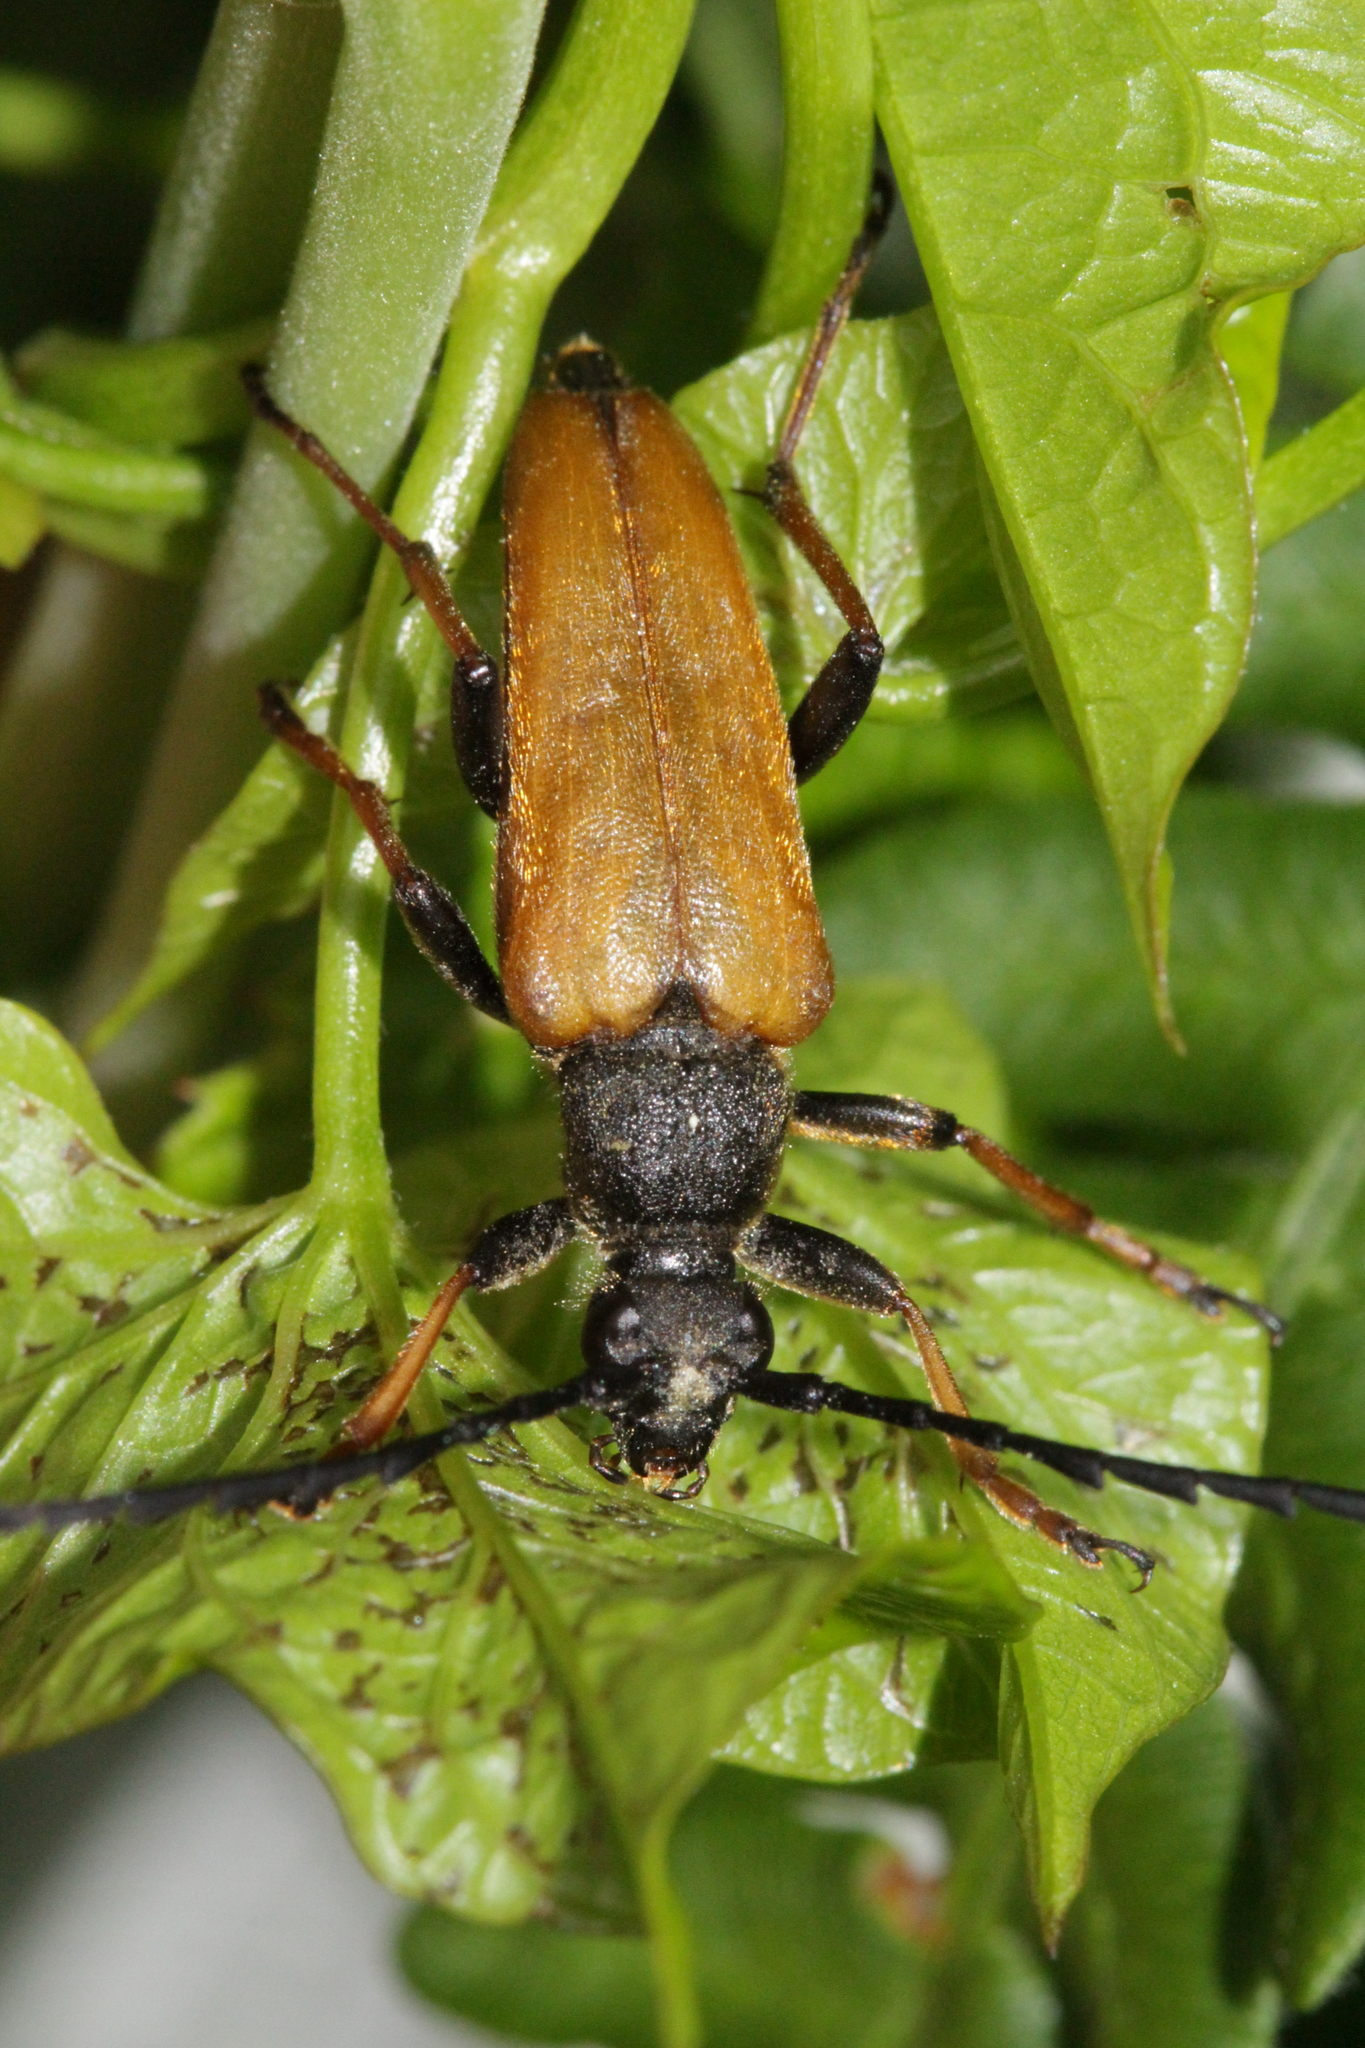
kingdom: Animalia
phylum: Arthropoda
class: Insecta
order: Coleoptera
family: Cerambycidae
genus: Stictoleptura
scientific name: Stictoleptura rubra
